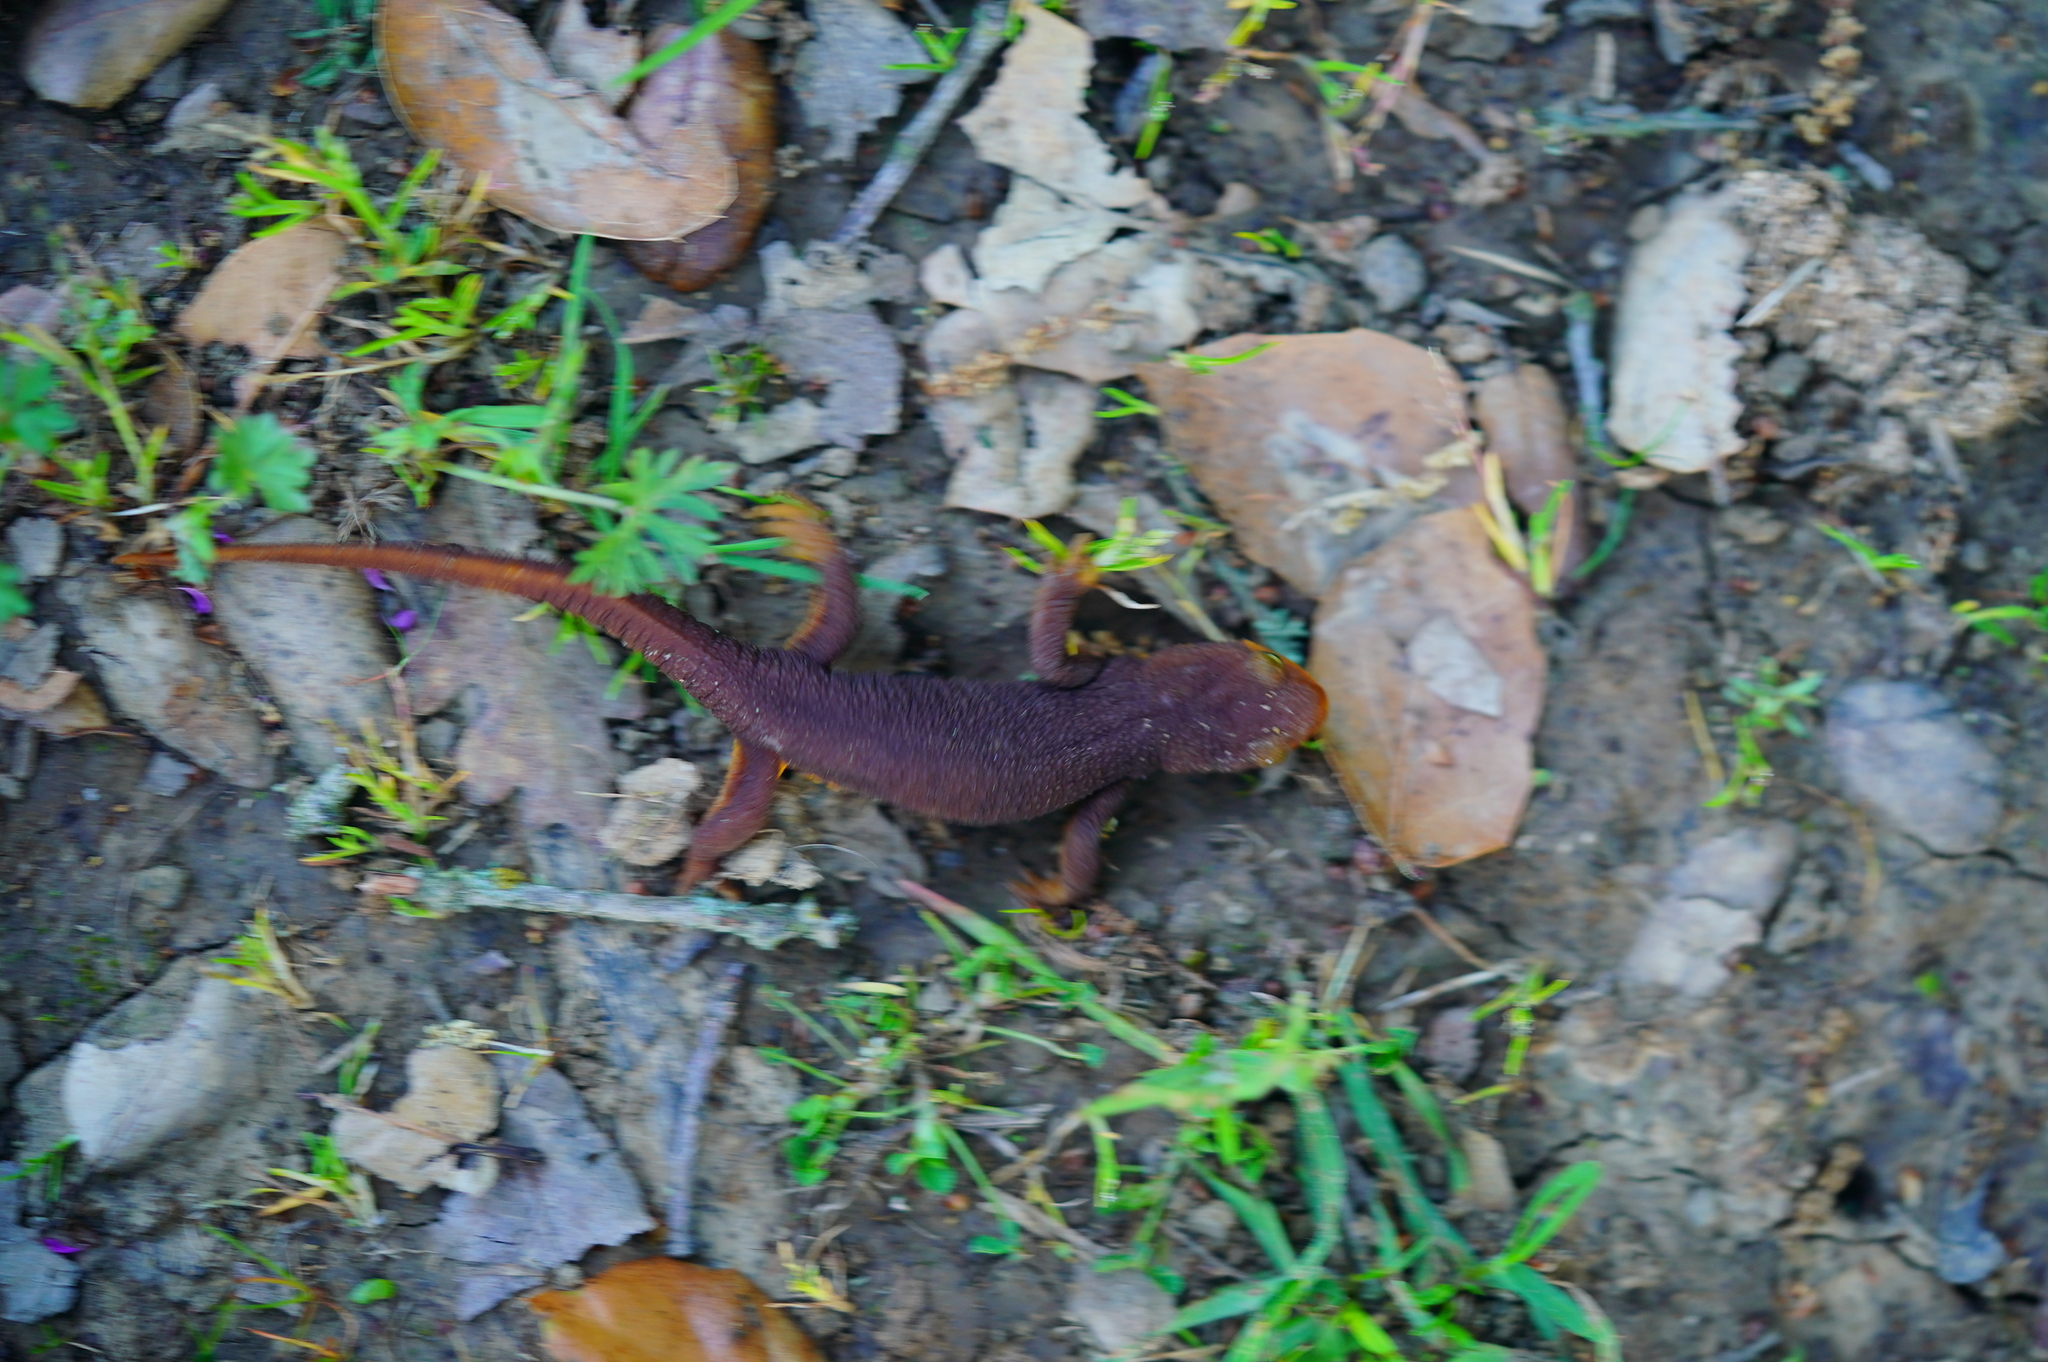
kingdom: Animalia
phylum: Chordata
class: Amphibia
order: Caudata
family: Salamandridae
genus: Taricha
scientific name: Taricha torosa
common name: California newt
